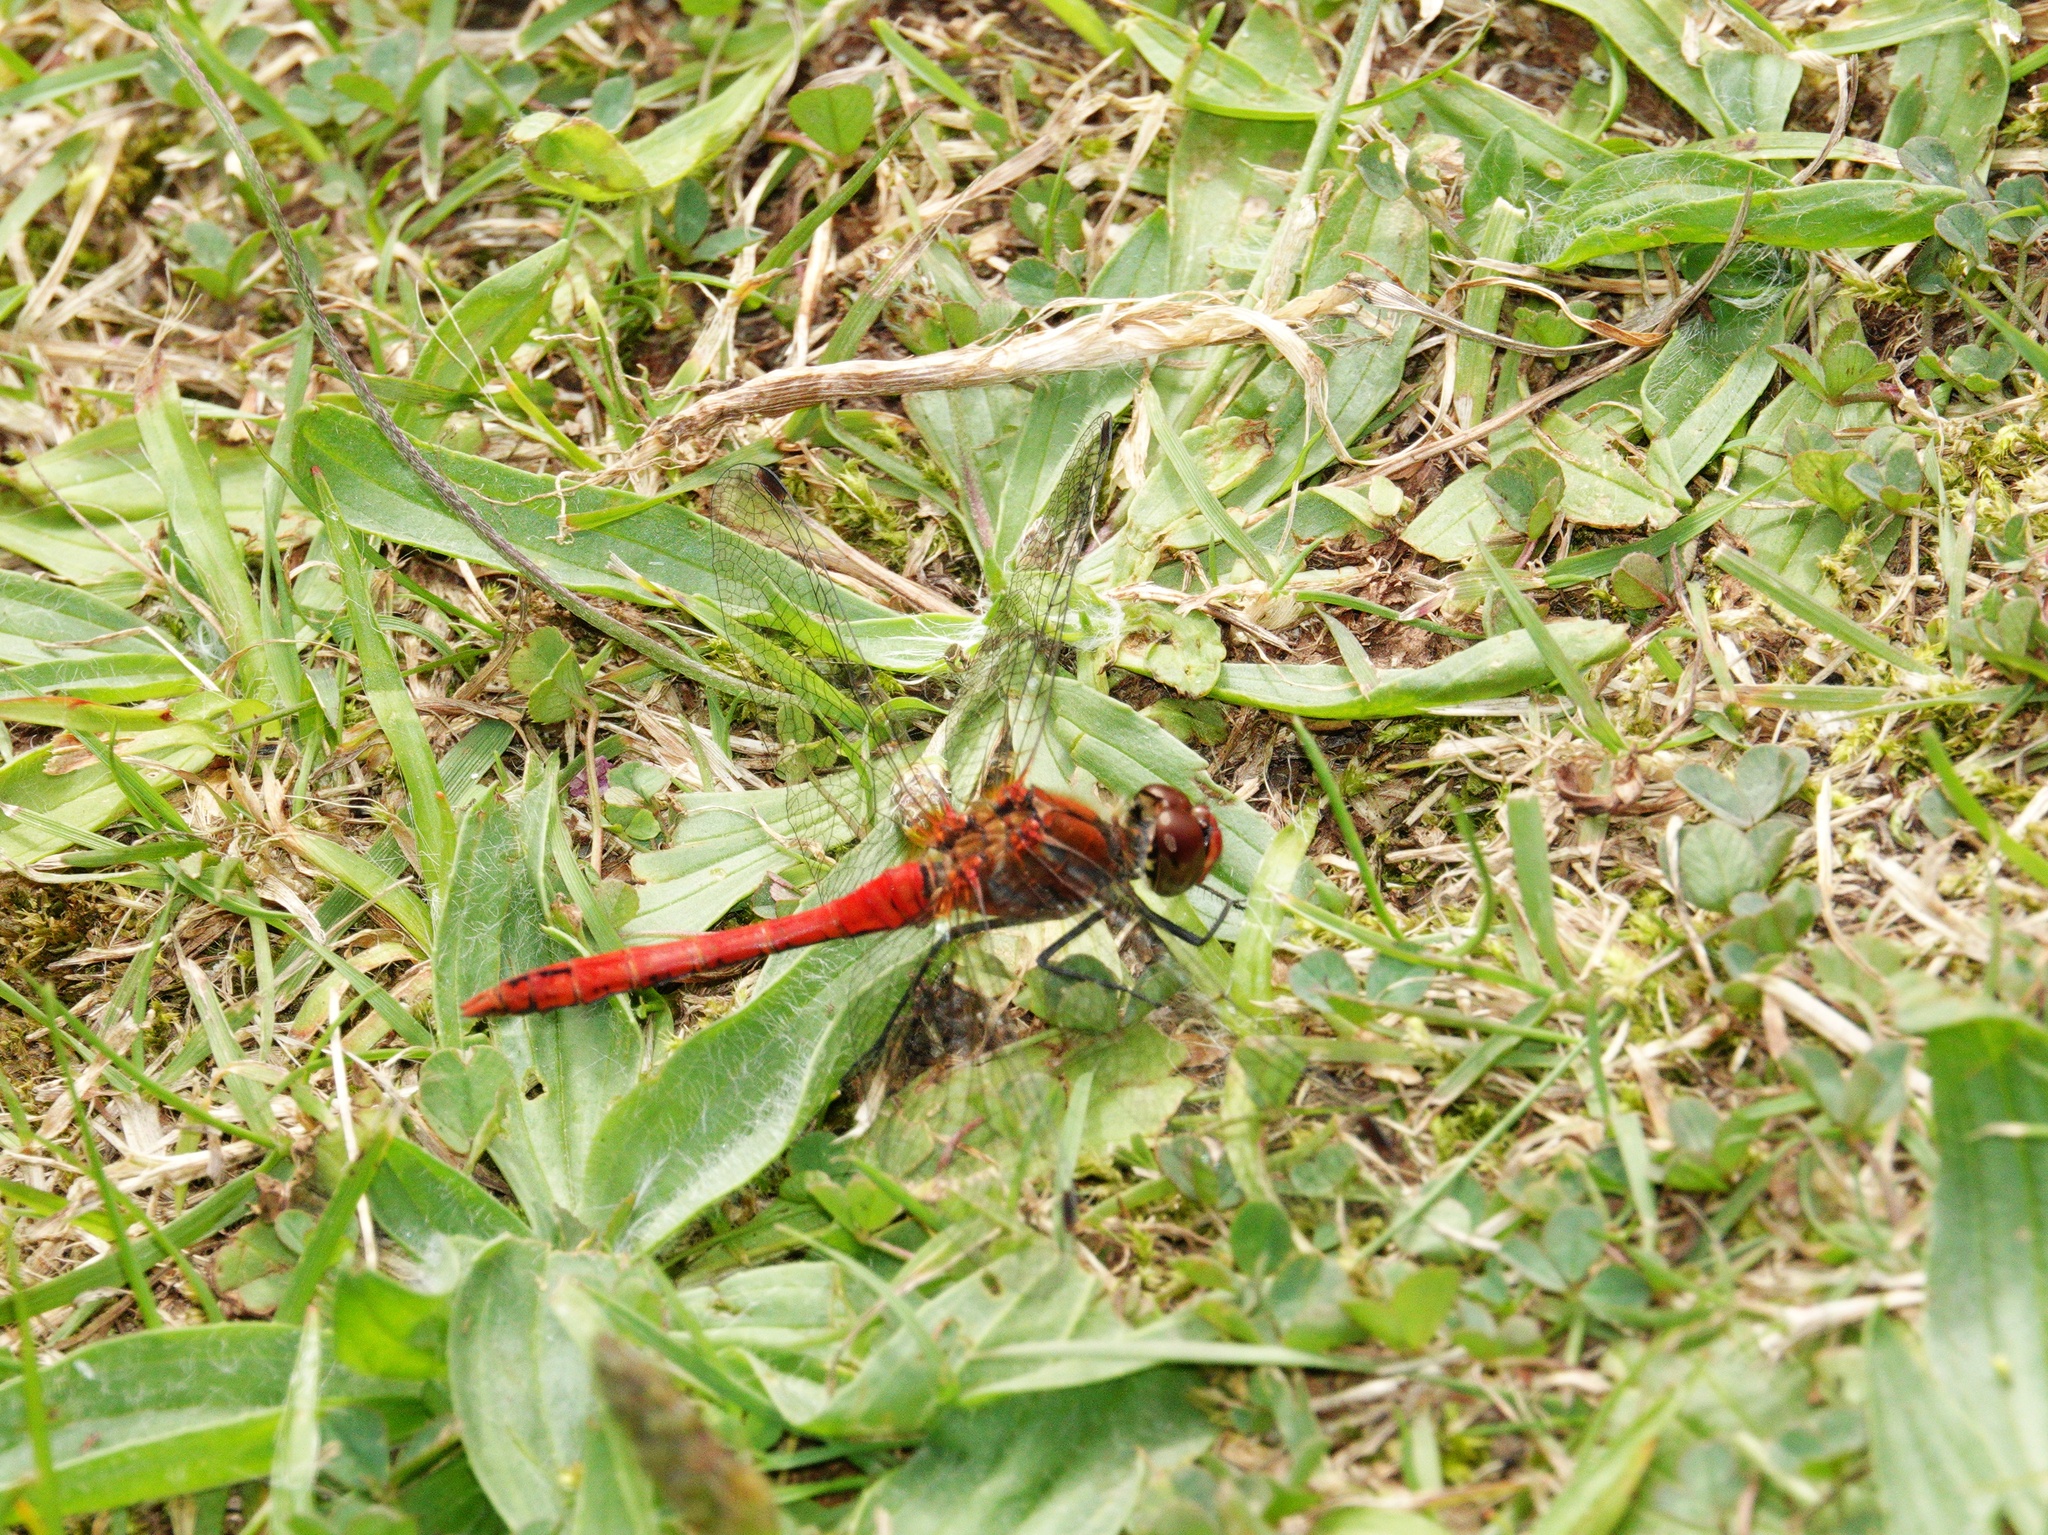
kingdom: Animalia
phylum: Arthropoda
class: Insecta
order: Odonata
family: Libellulidae
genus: Sympetrum
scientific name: Sympetrum sanguineum
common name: Ruddy darter
